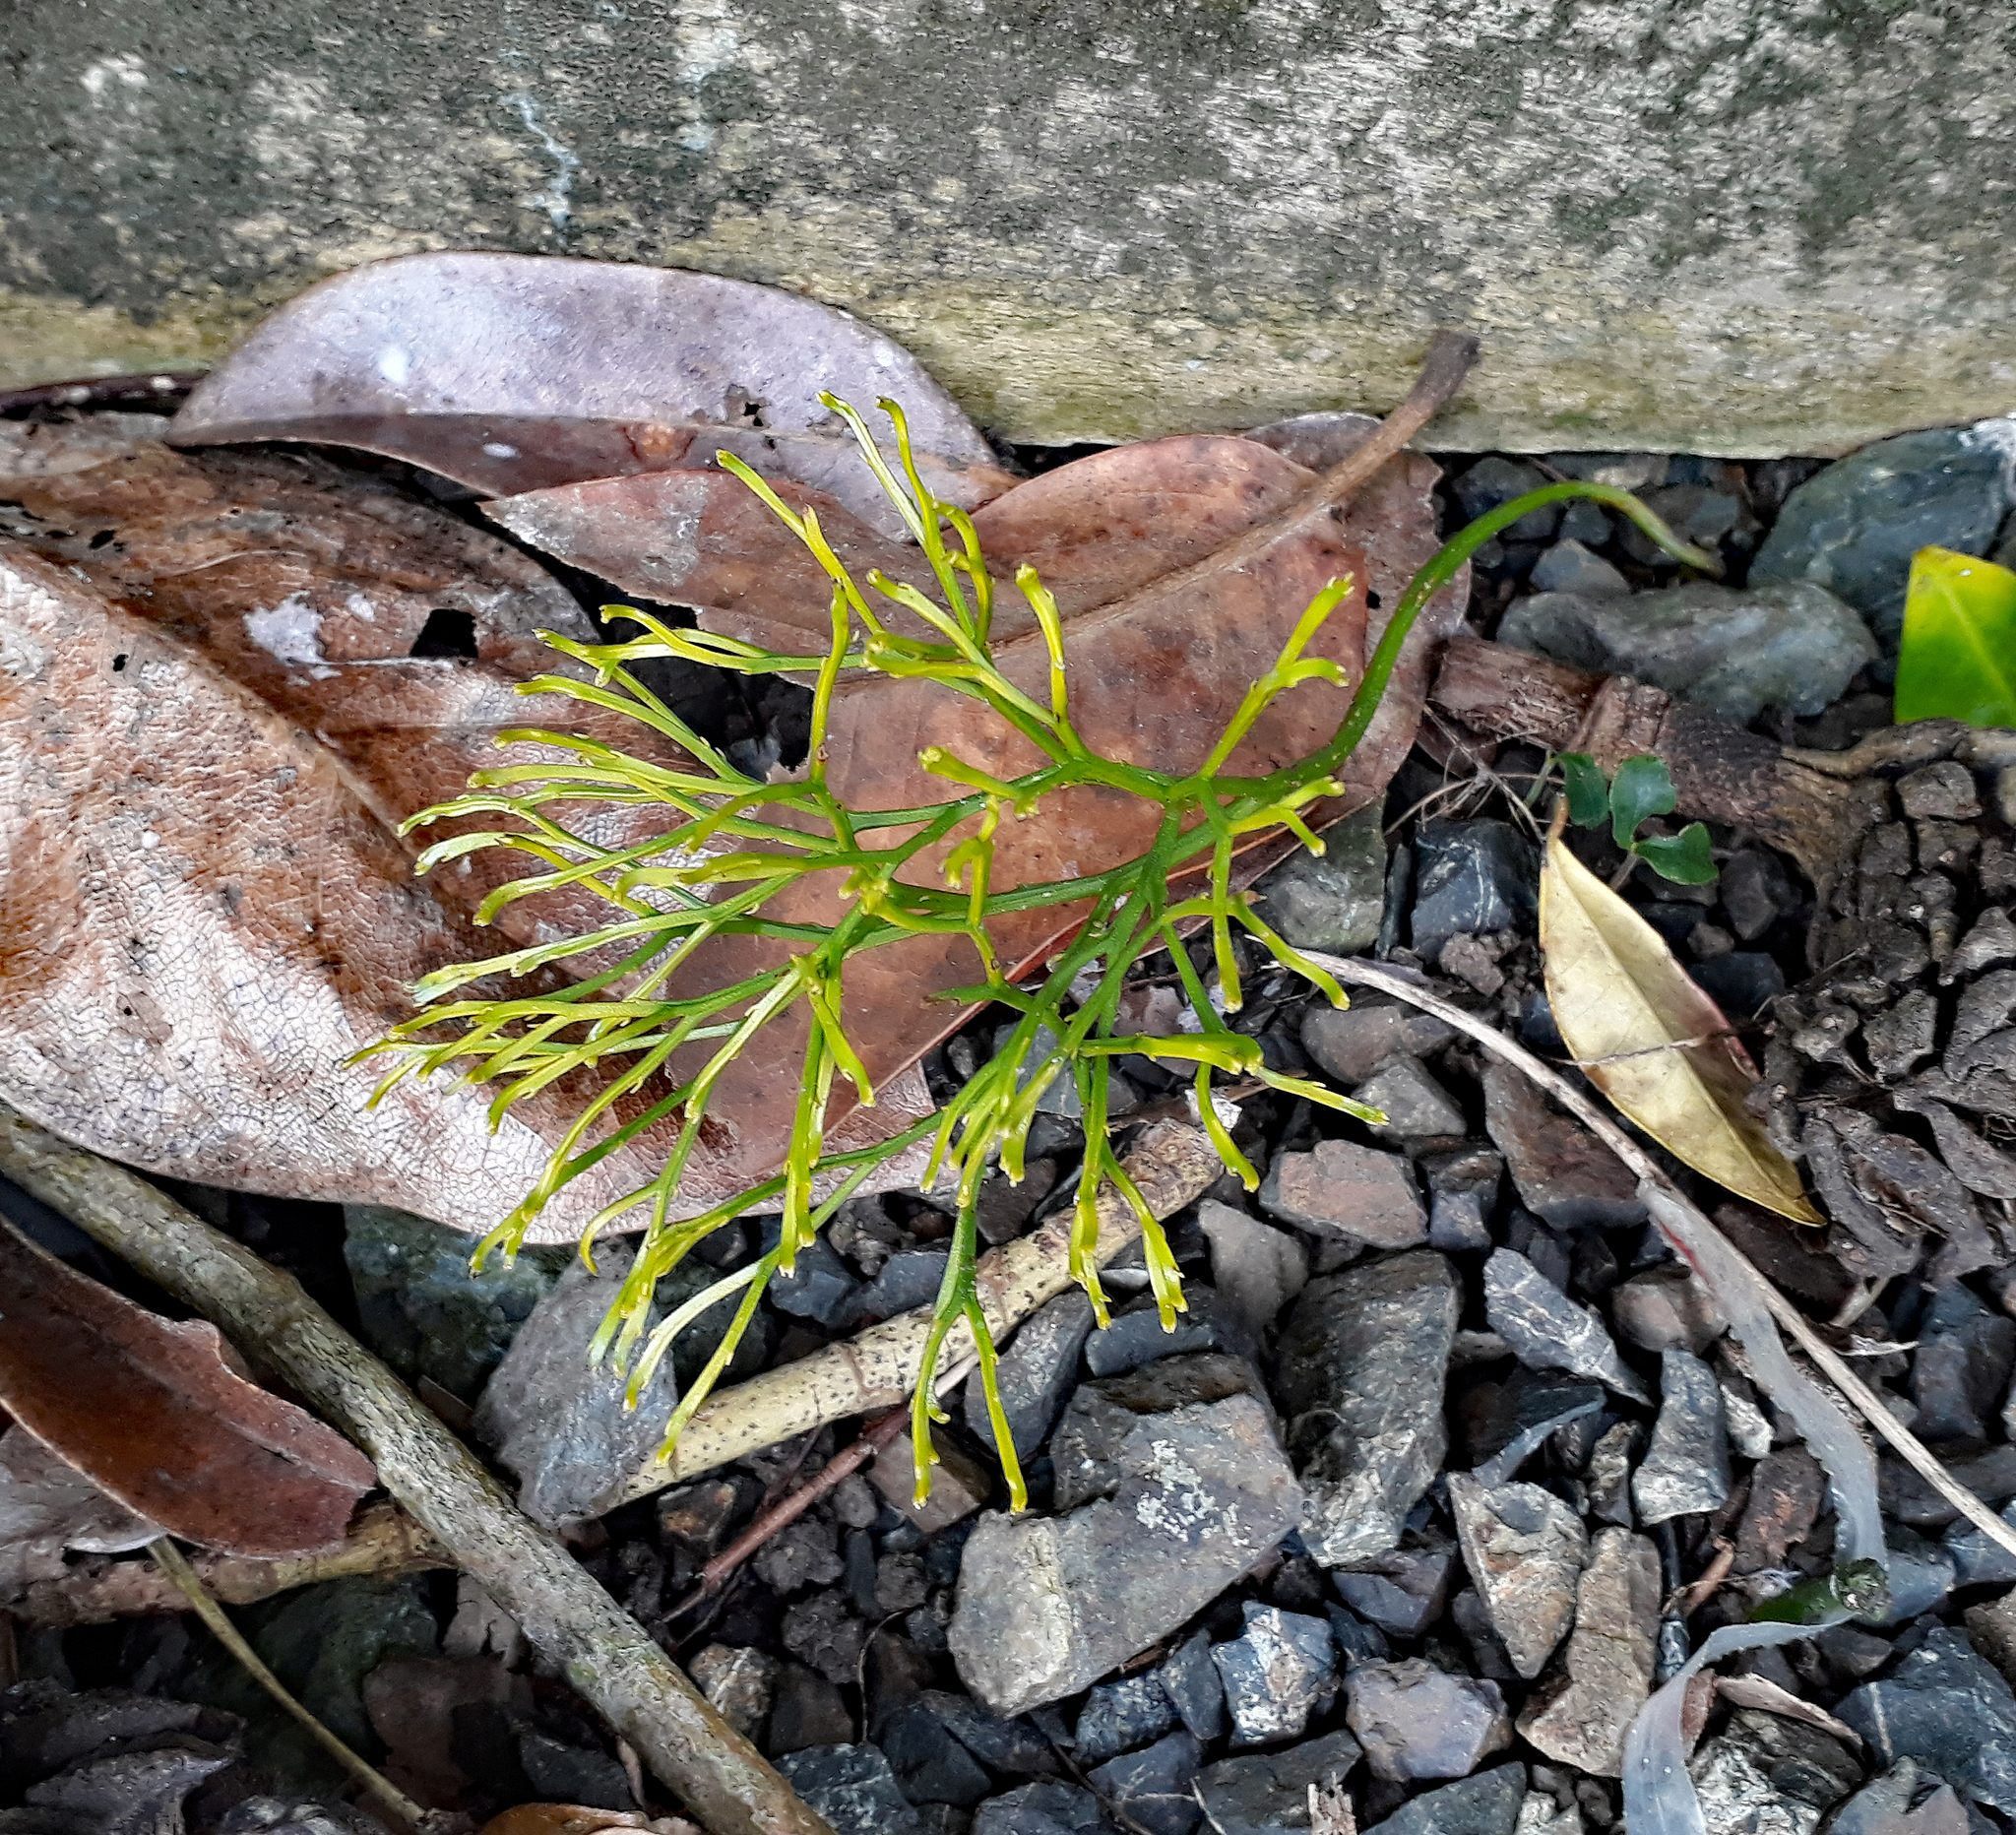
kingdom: Plantae
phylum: Tracheophyta
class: Polypodiopsida
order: Psilotales
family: Psilotaceae
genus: Psilotum
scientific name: Psilotum nudum
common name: Skeleton fork fern
